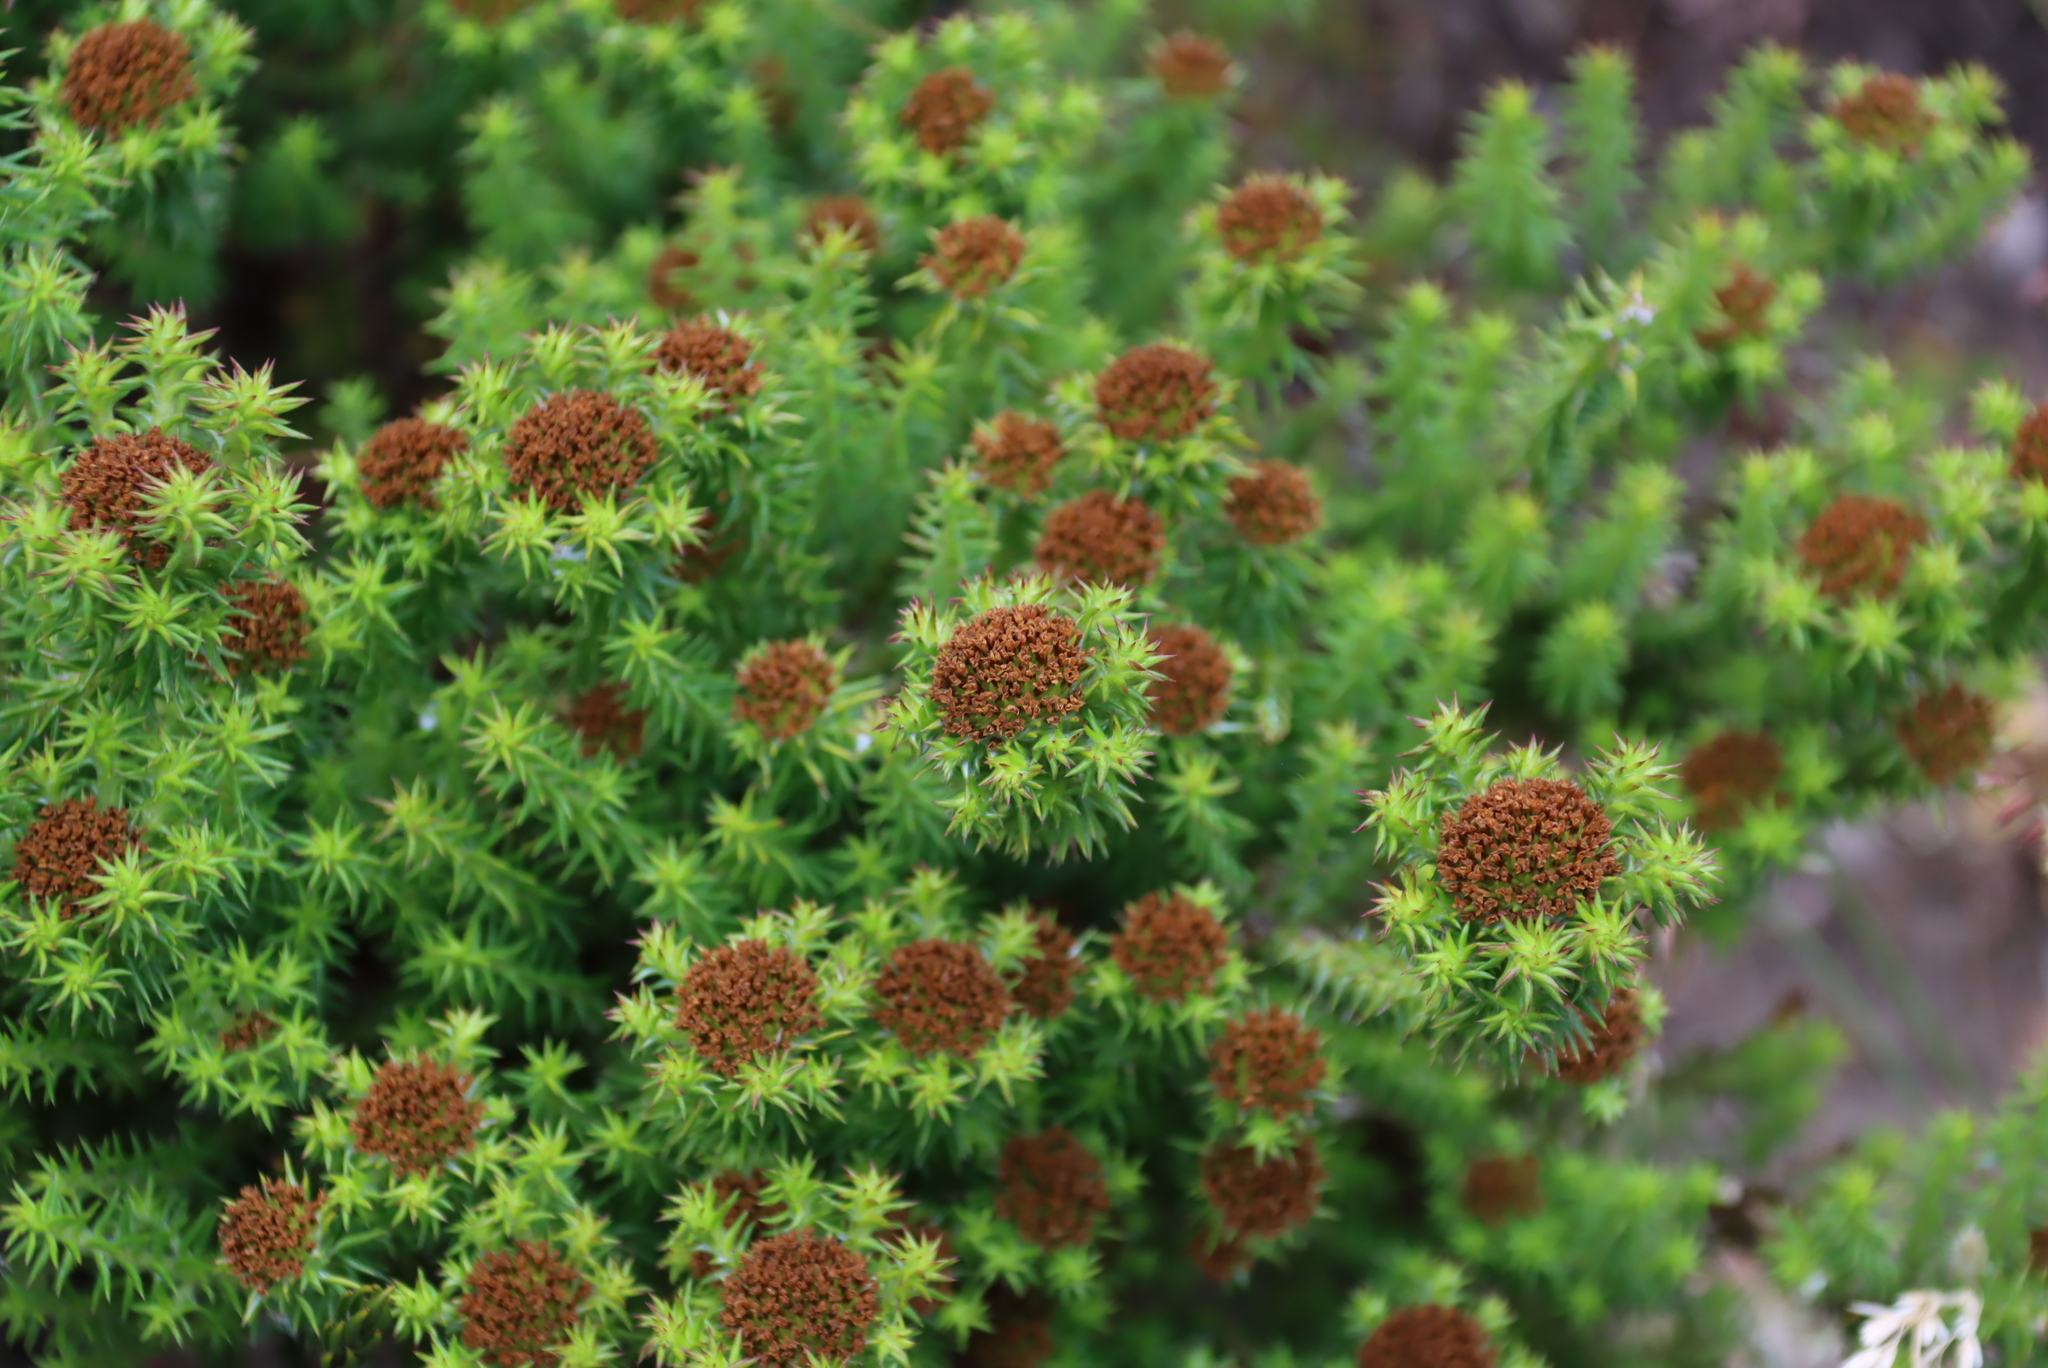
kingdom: Plantae
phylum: Tracheophyta
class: Magnoliopsida
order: Asterales
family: Asteraceae
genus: Stoebe
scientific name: Stoebe aethiopica
